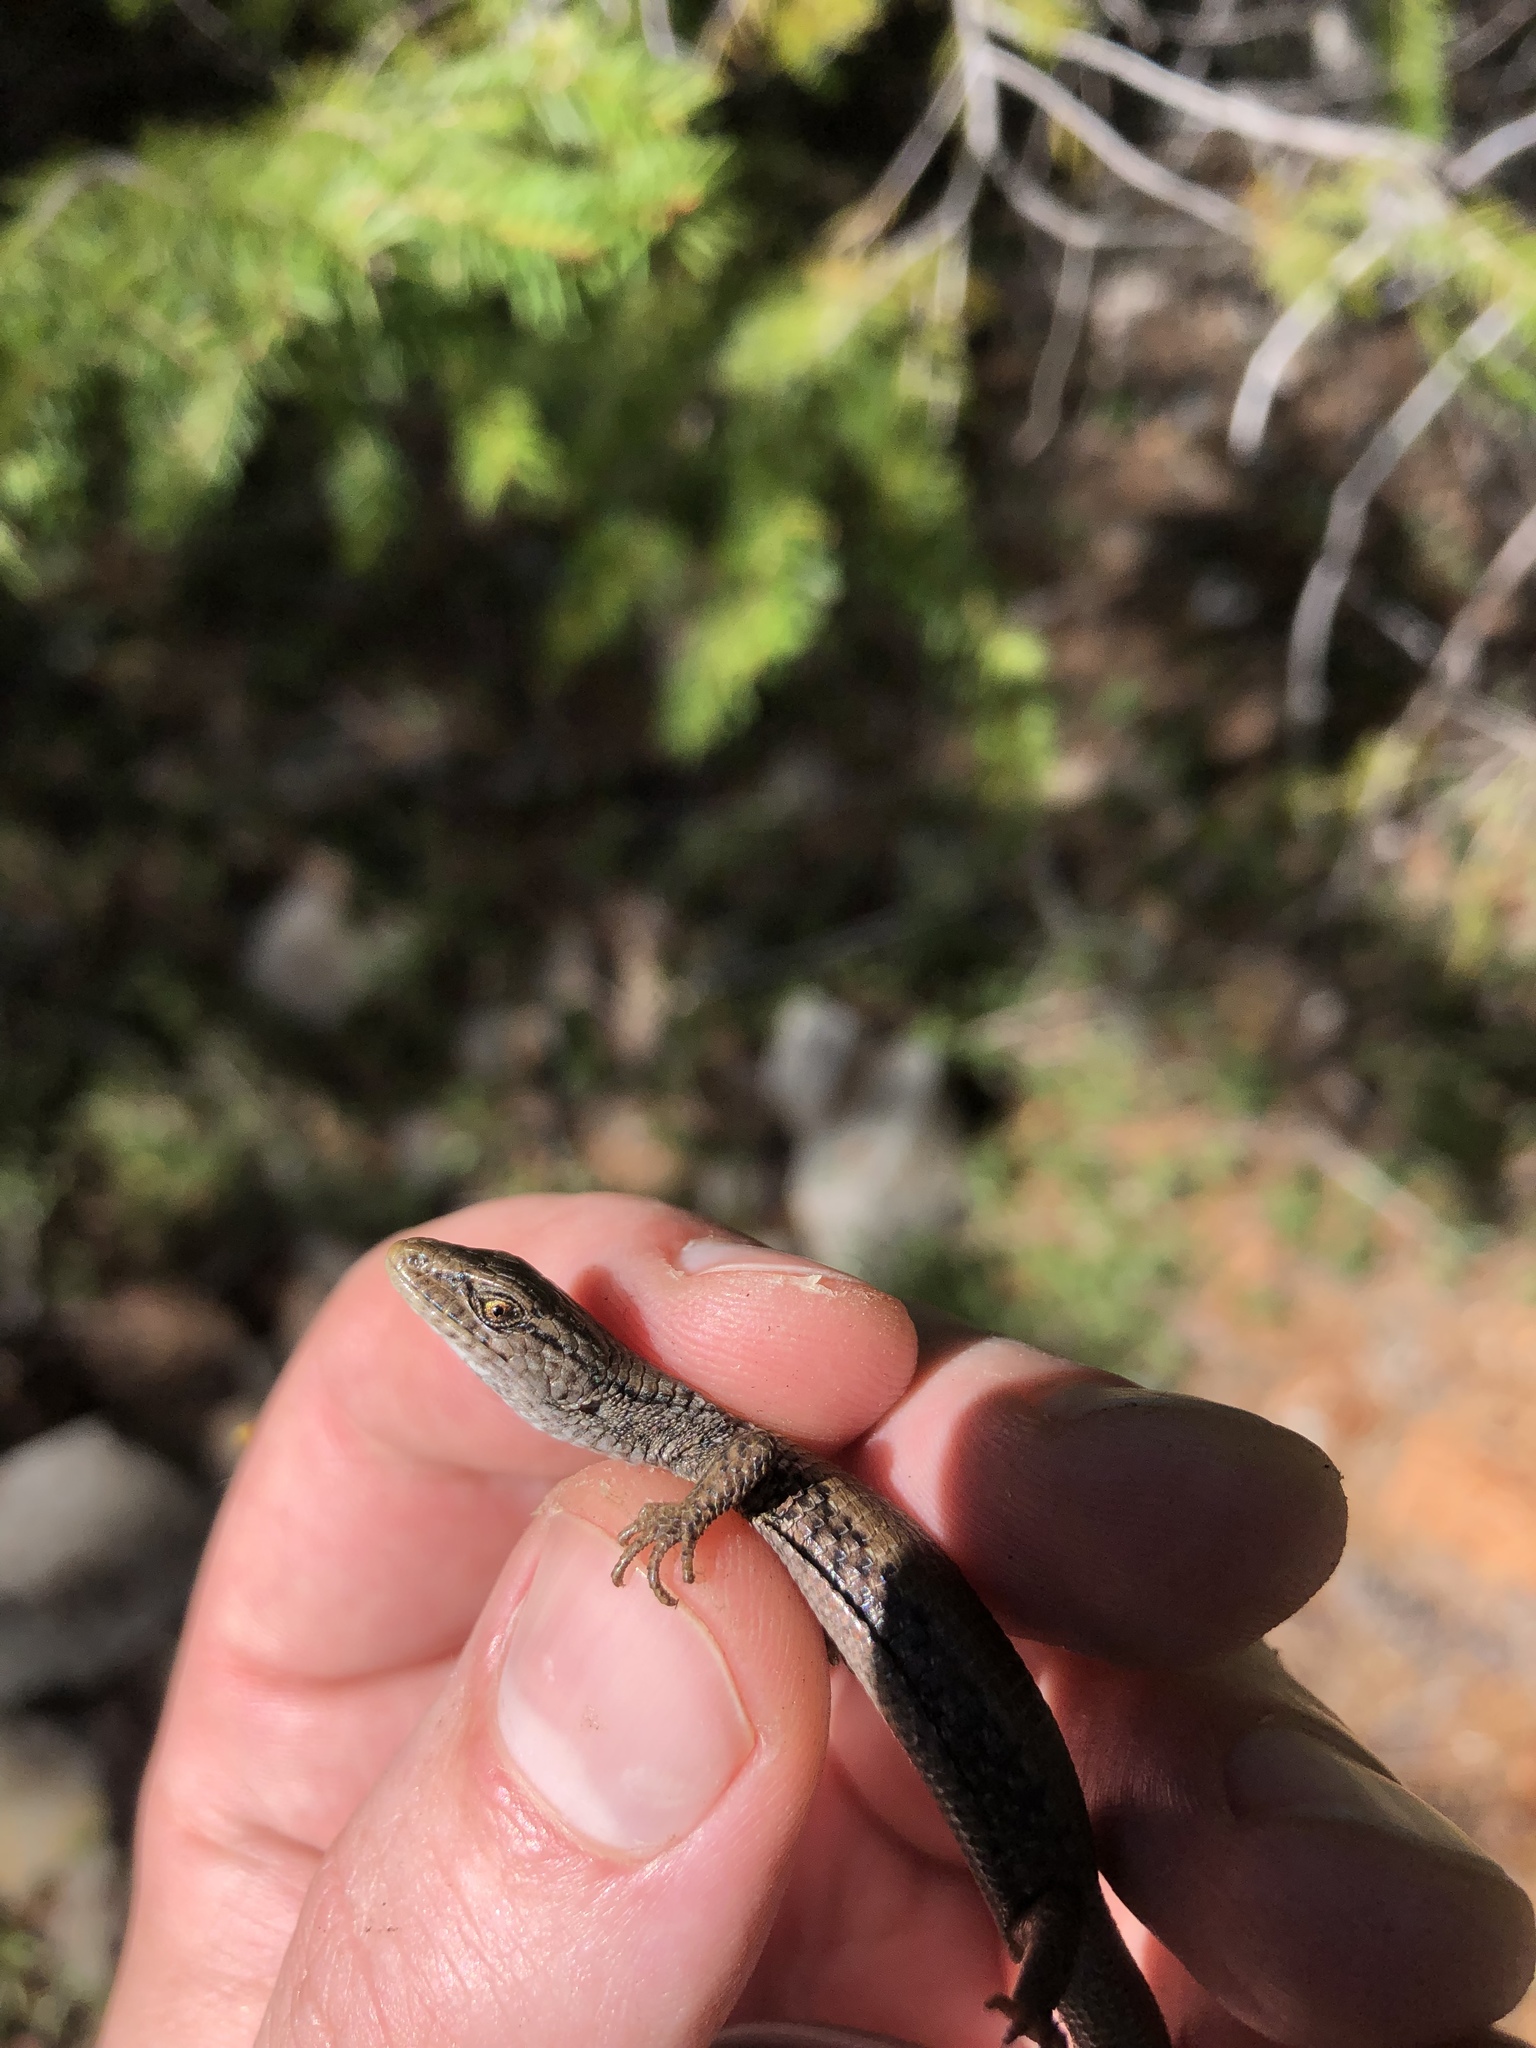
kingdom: Animalia
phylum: Chordata
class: Squamata
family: Anguidae
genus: Elgaria
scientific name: Elgaria multicarinata
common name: Southern alligator lizard
